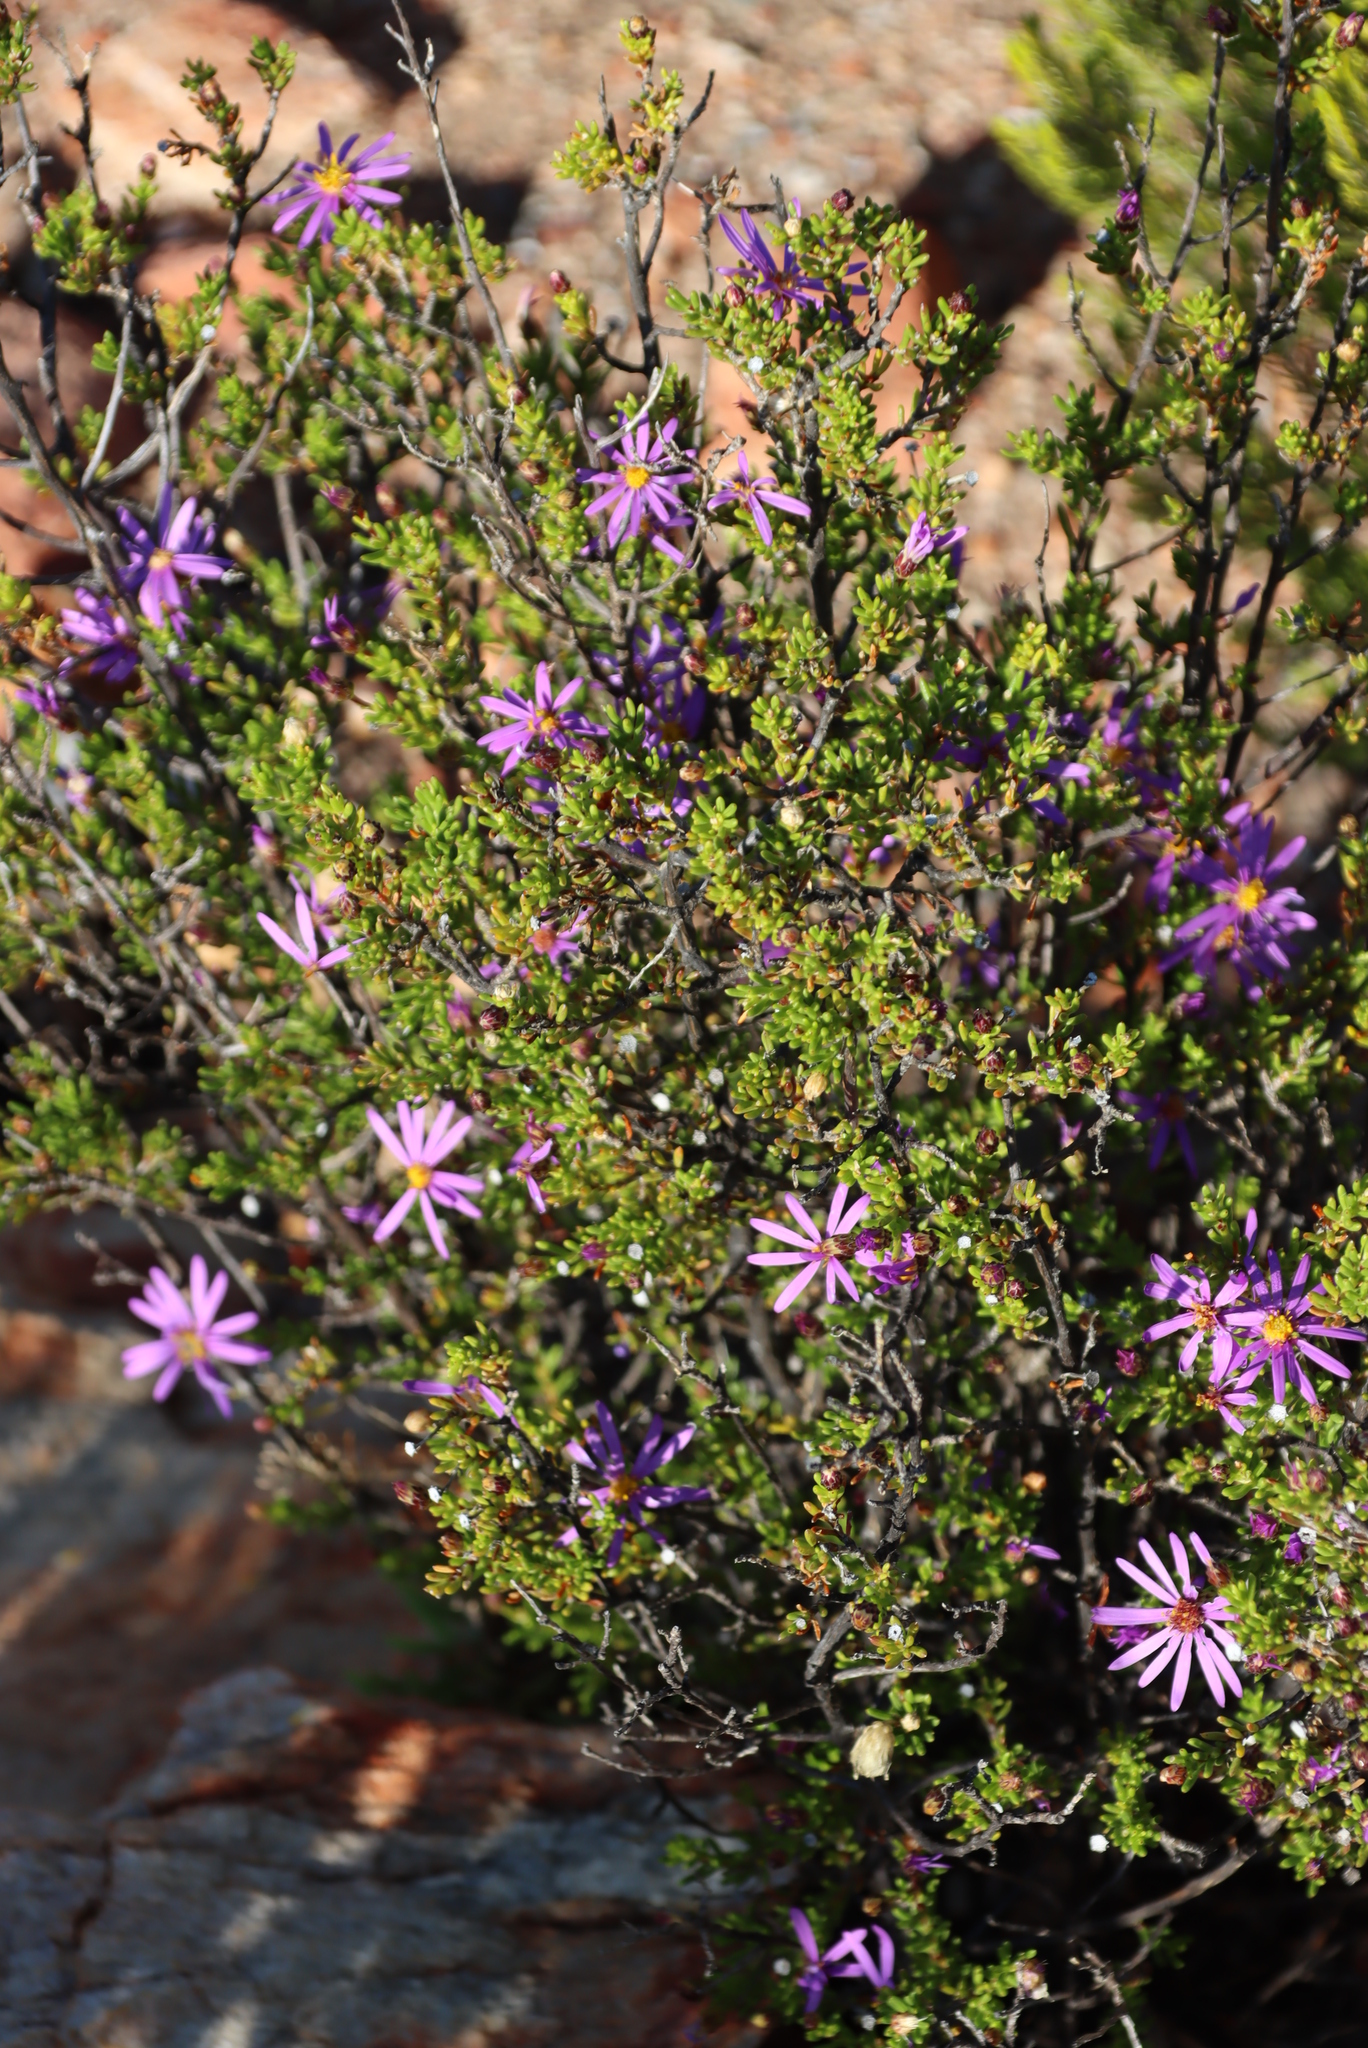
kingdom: Plantae
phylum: Tracheophyta
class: Magnoliopsida
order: Asterales
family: Asteraceae
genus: Felicia
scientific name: Felicia filifolia
